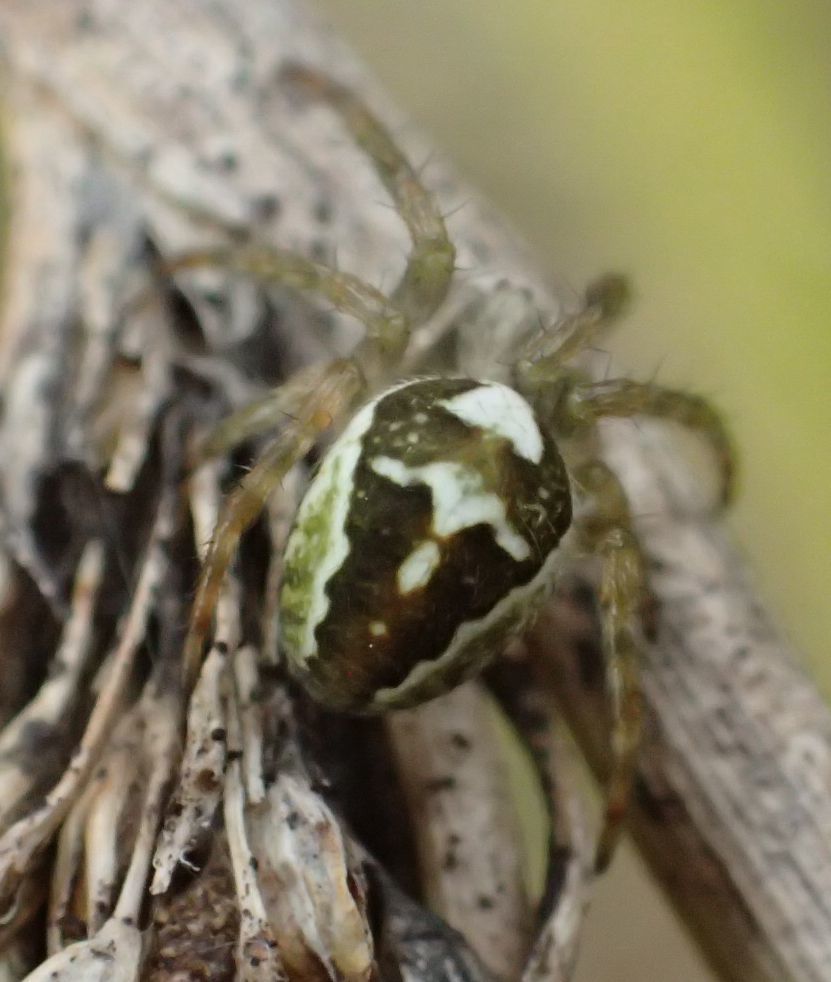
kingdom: Animalia
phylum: Arthropoda
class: Arachnida
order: Araneae
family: Araneidae
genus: Novaranea
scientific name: Novaranea queribunda
